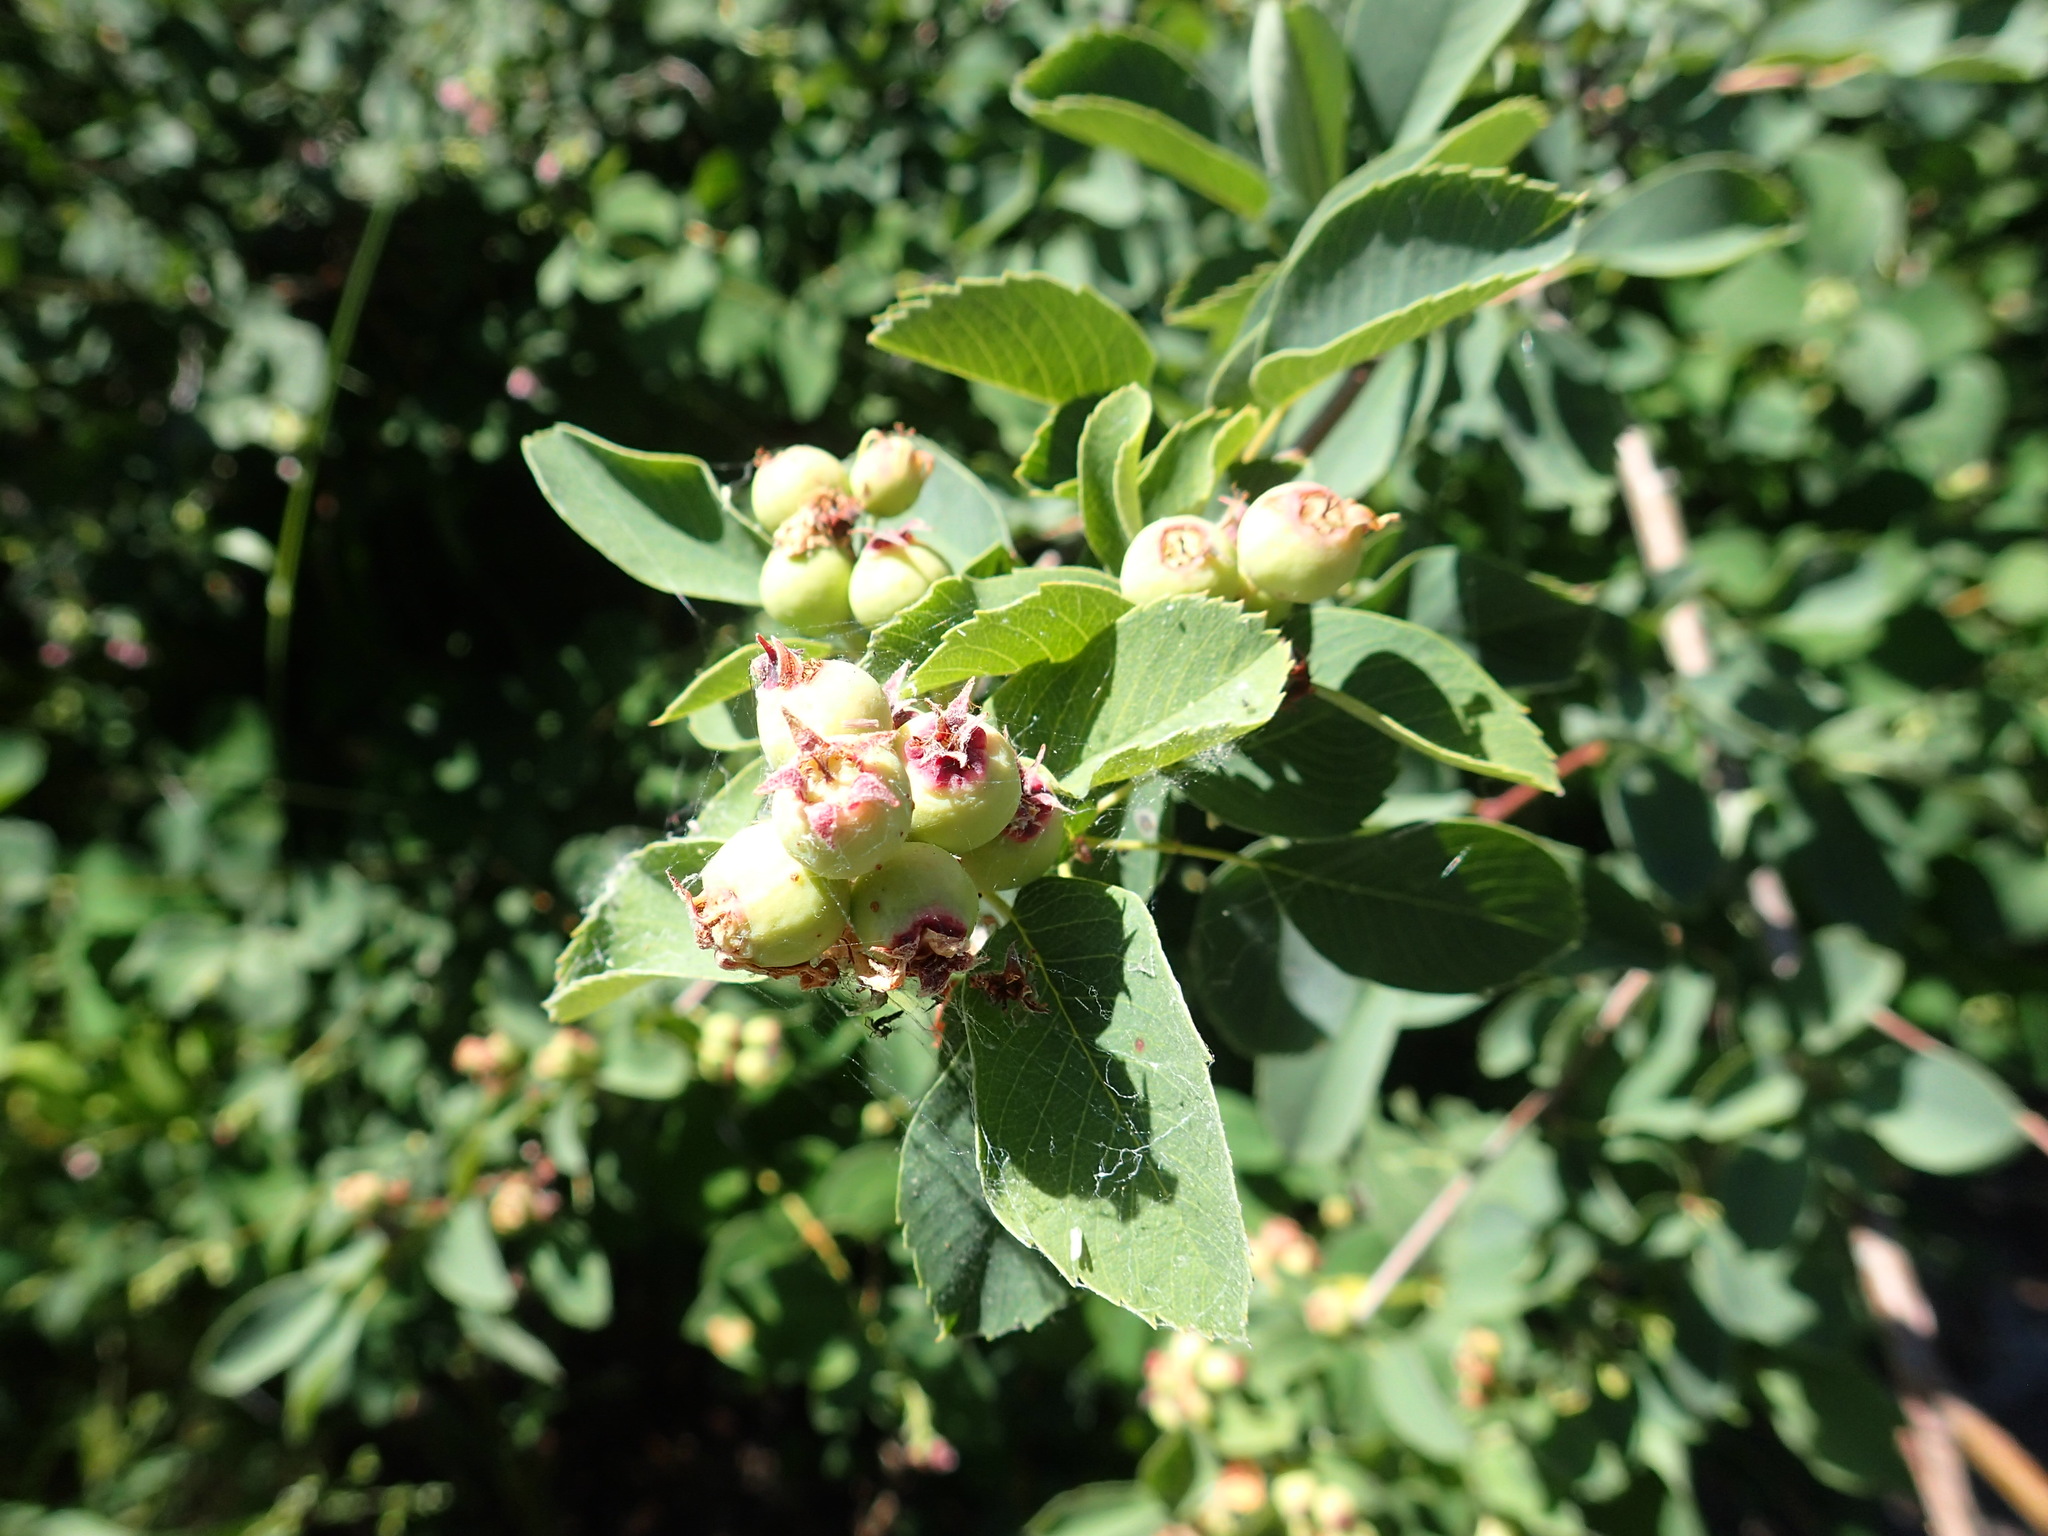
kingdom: Plantae
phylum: Tracheophyta
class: Magnoliopsida
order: Rosales
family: Rosaceae
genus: Amelanchier
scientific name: Amelanchier alnifolia
